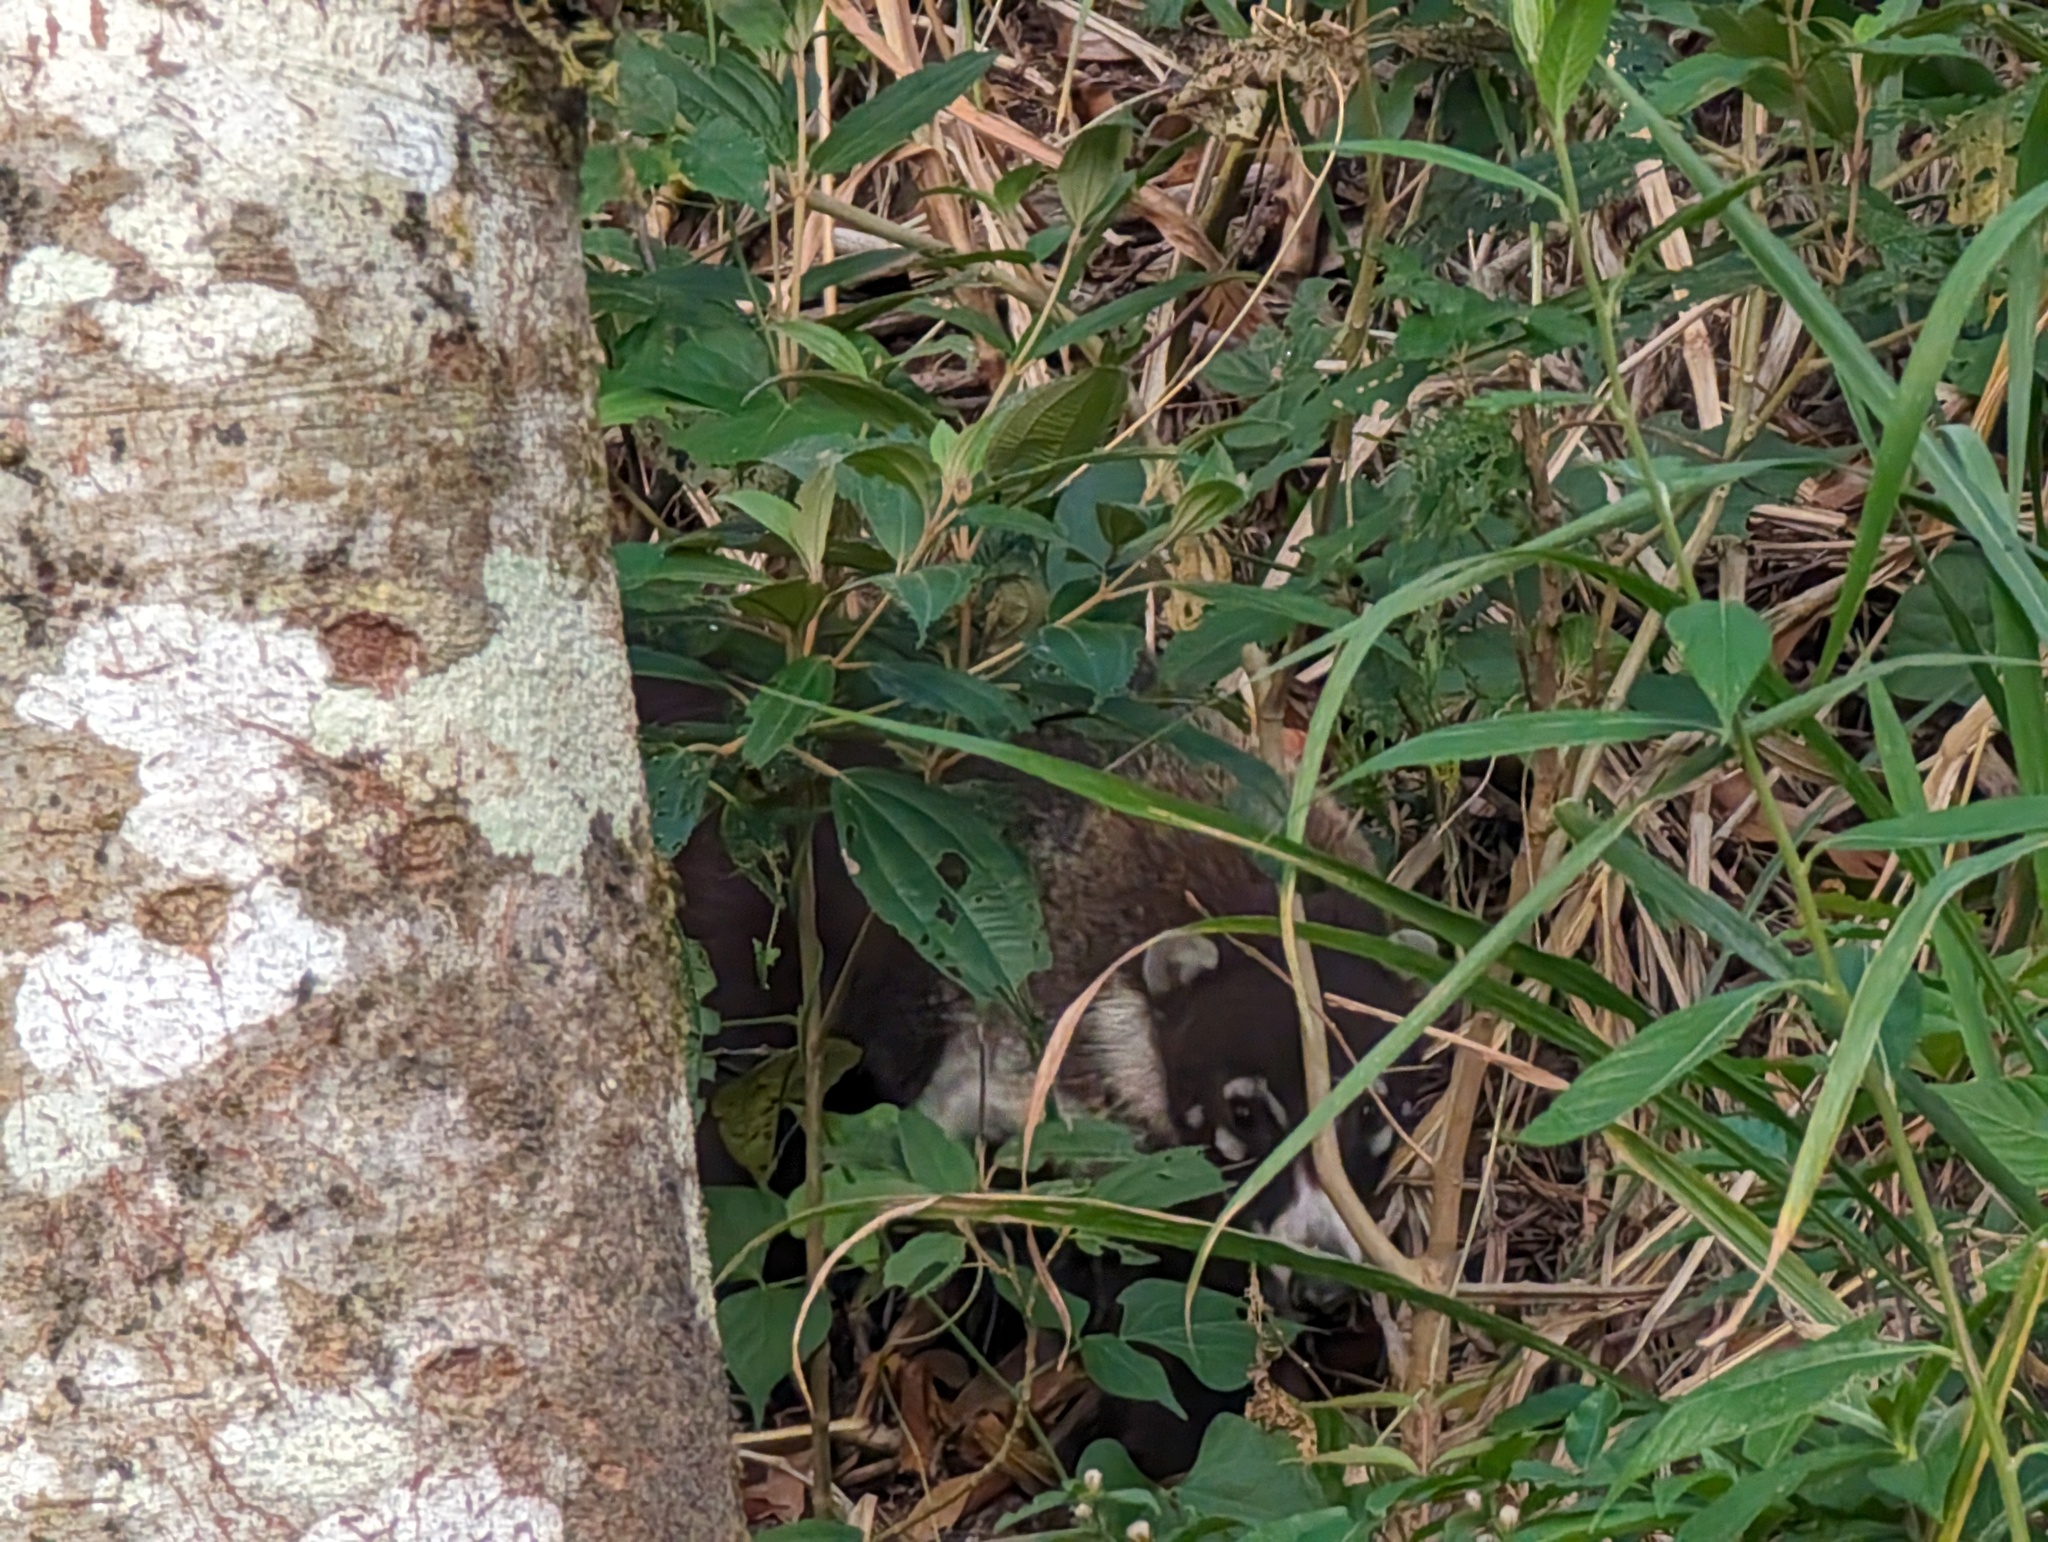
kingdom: Animalia
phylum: Chordata
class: Mammalia
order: Carnivora
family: Procyonidae
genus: Nasua
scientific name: Nasua narica
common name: White-nosed coati
